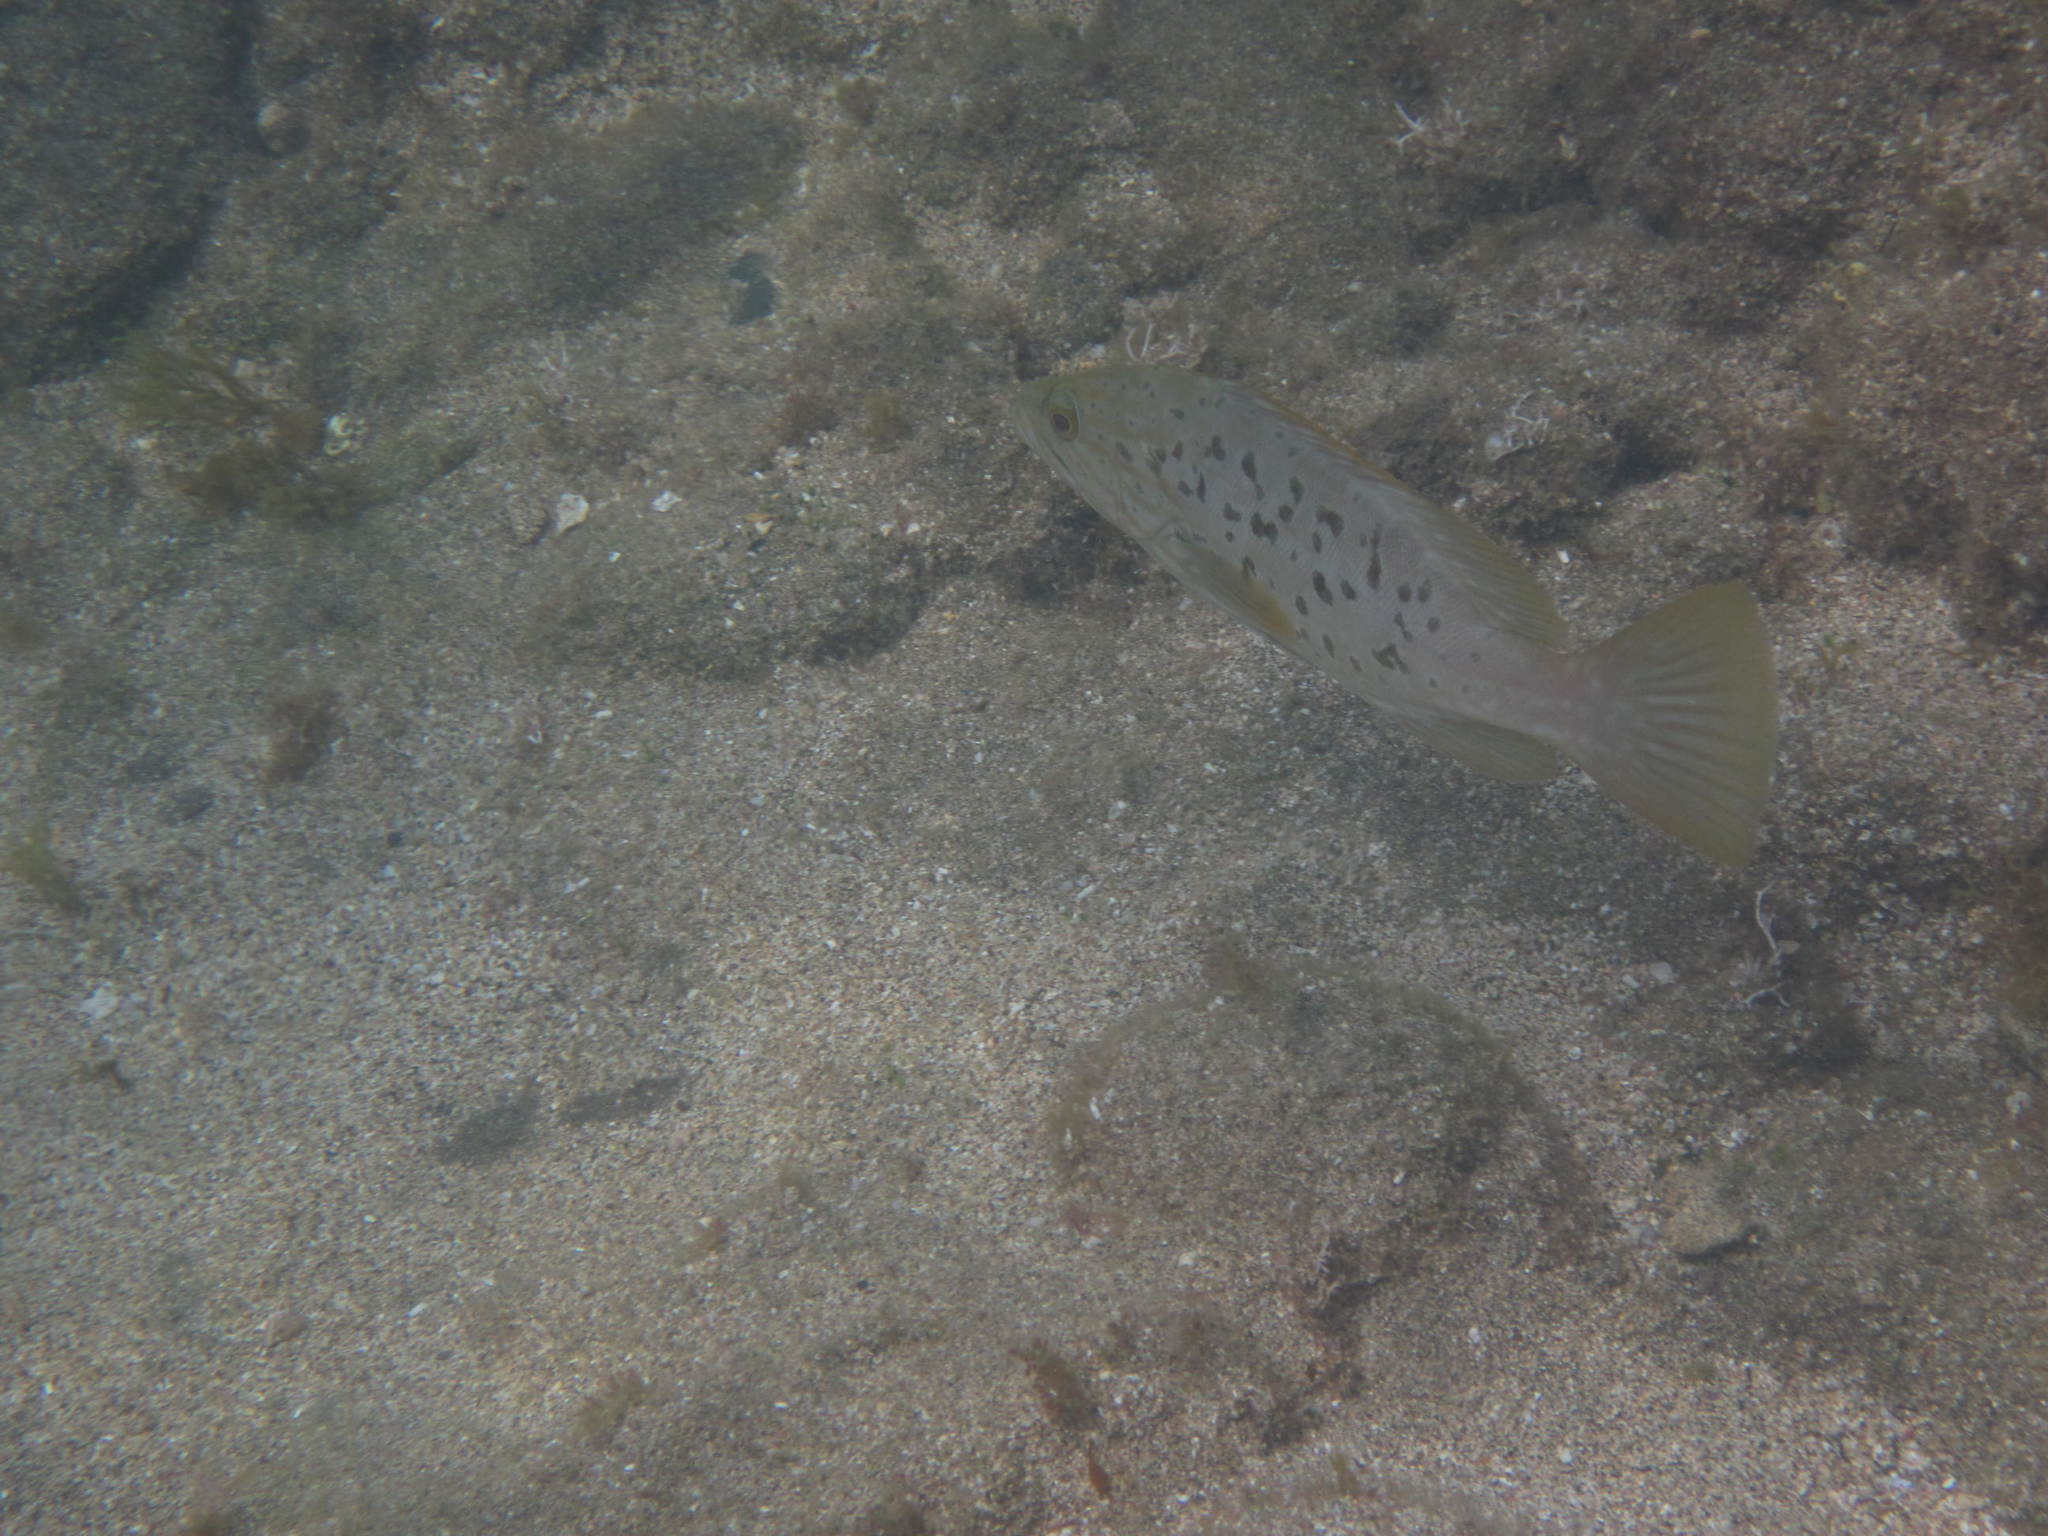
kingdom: Animalia
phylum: Chordata
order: Perciformes
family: Serranidae
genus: Mycteroperca
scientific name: Mycteroperca fusca
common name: Island grouper
